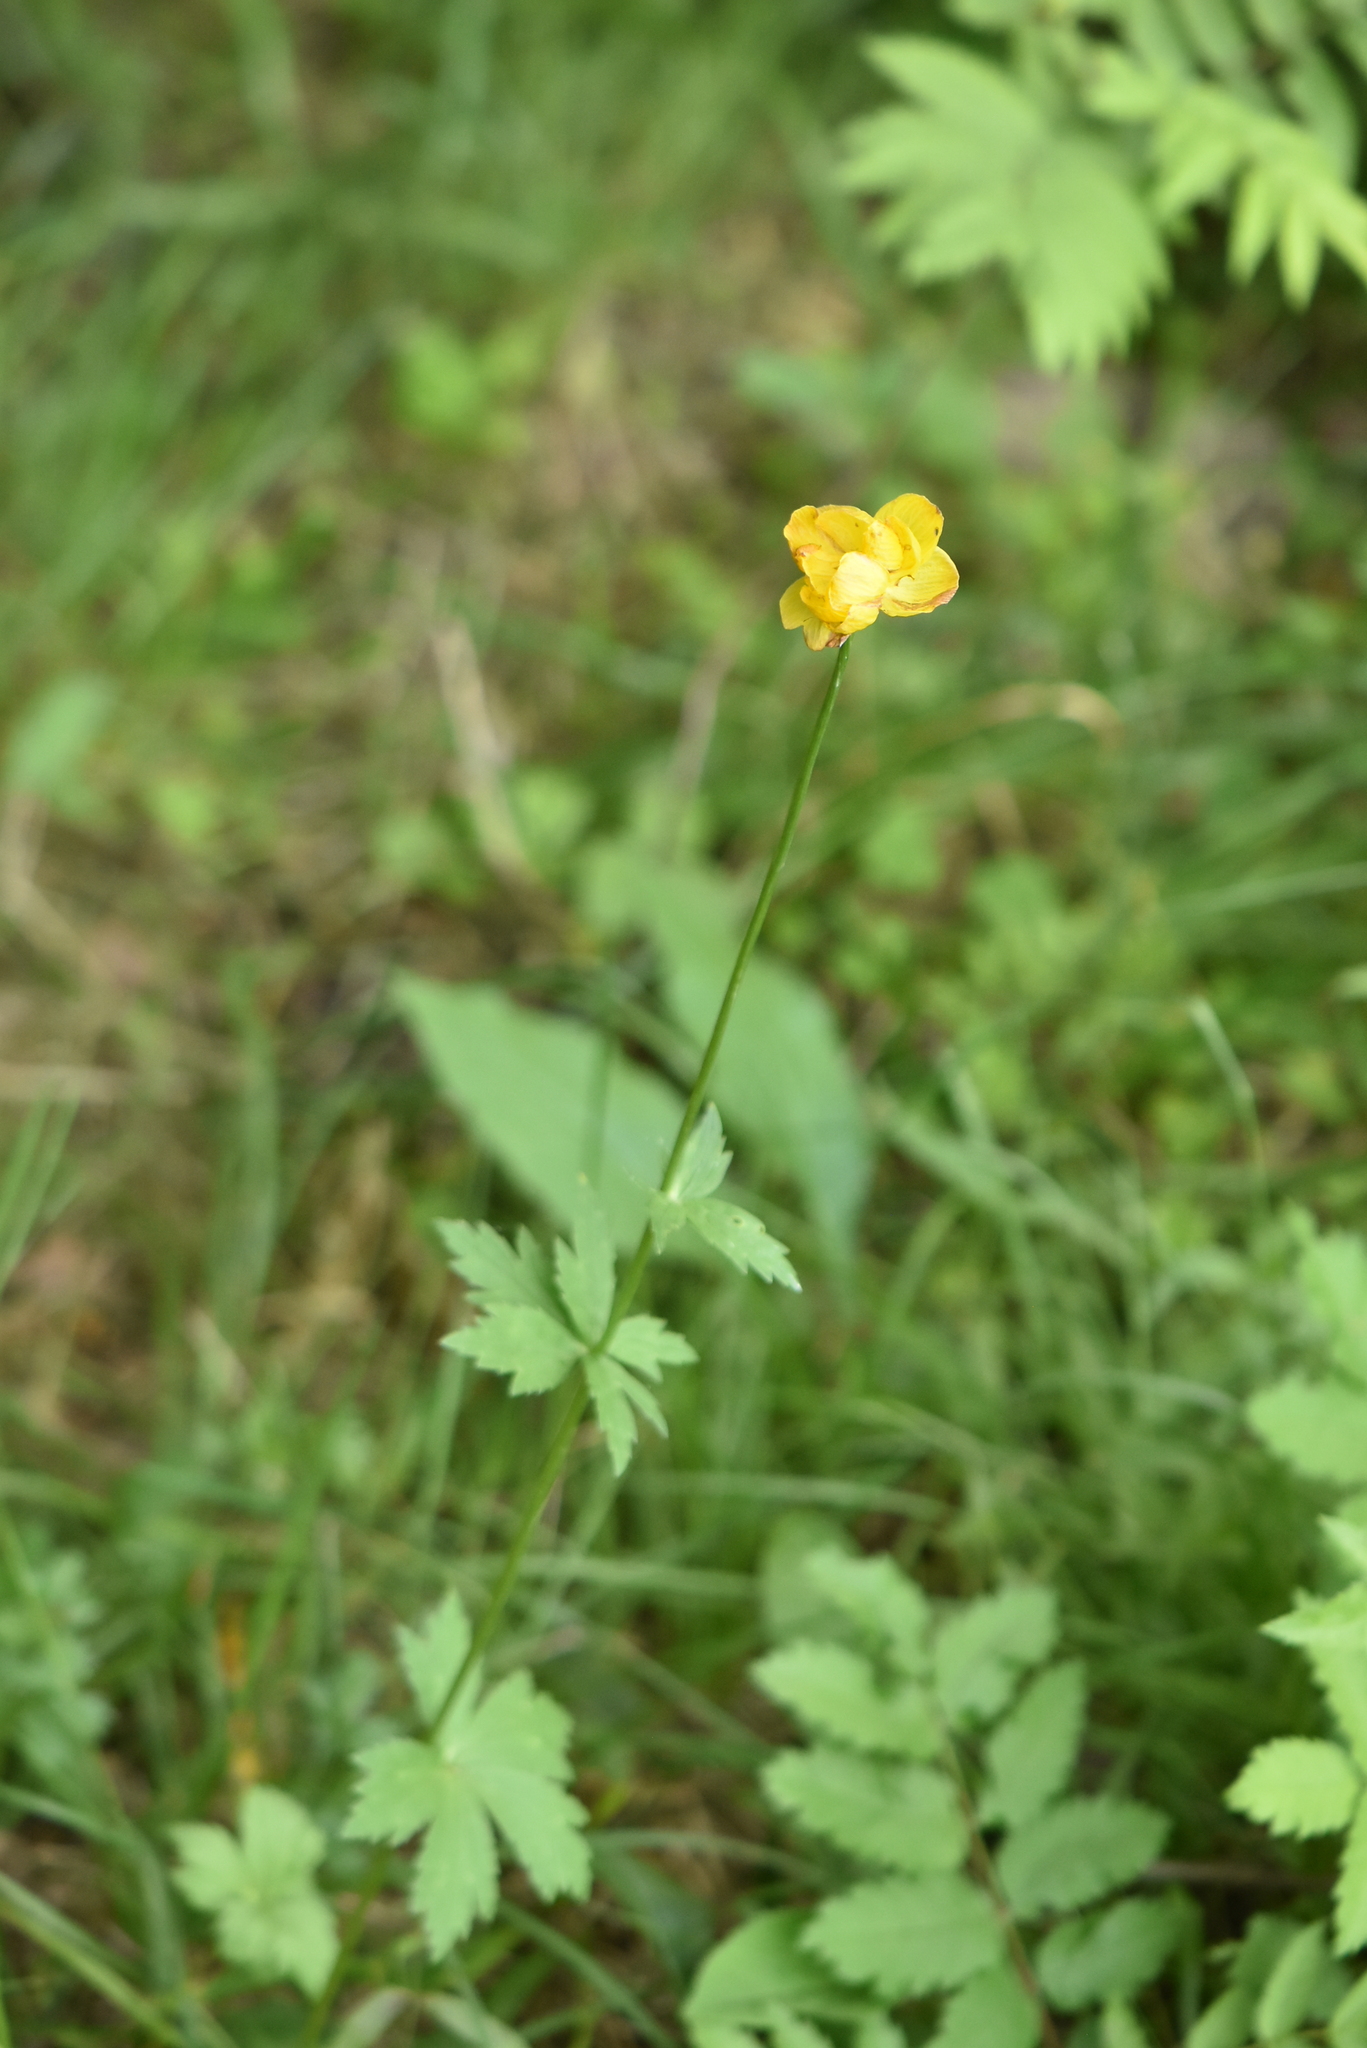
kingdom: Plantae
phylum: Tracheophyta
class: Magnoliopsida
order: Ranunculales
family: Ranunculaceae
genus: Trollius
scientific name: Trollius europaeus
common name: European globeflower
